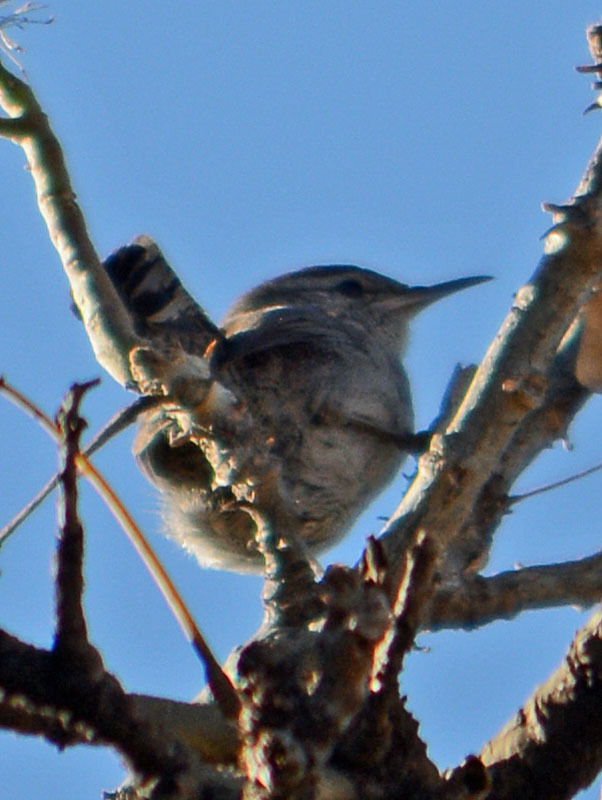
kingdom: Animalia
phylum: Chordata
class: Aves
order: Passeriformes
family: Troglodytidae
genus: Thryomanes
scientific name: Thryomanes bewickii
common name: Bewick's wren
